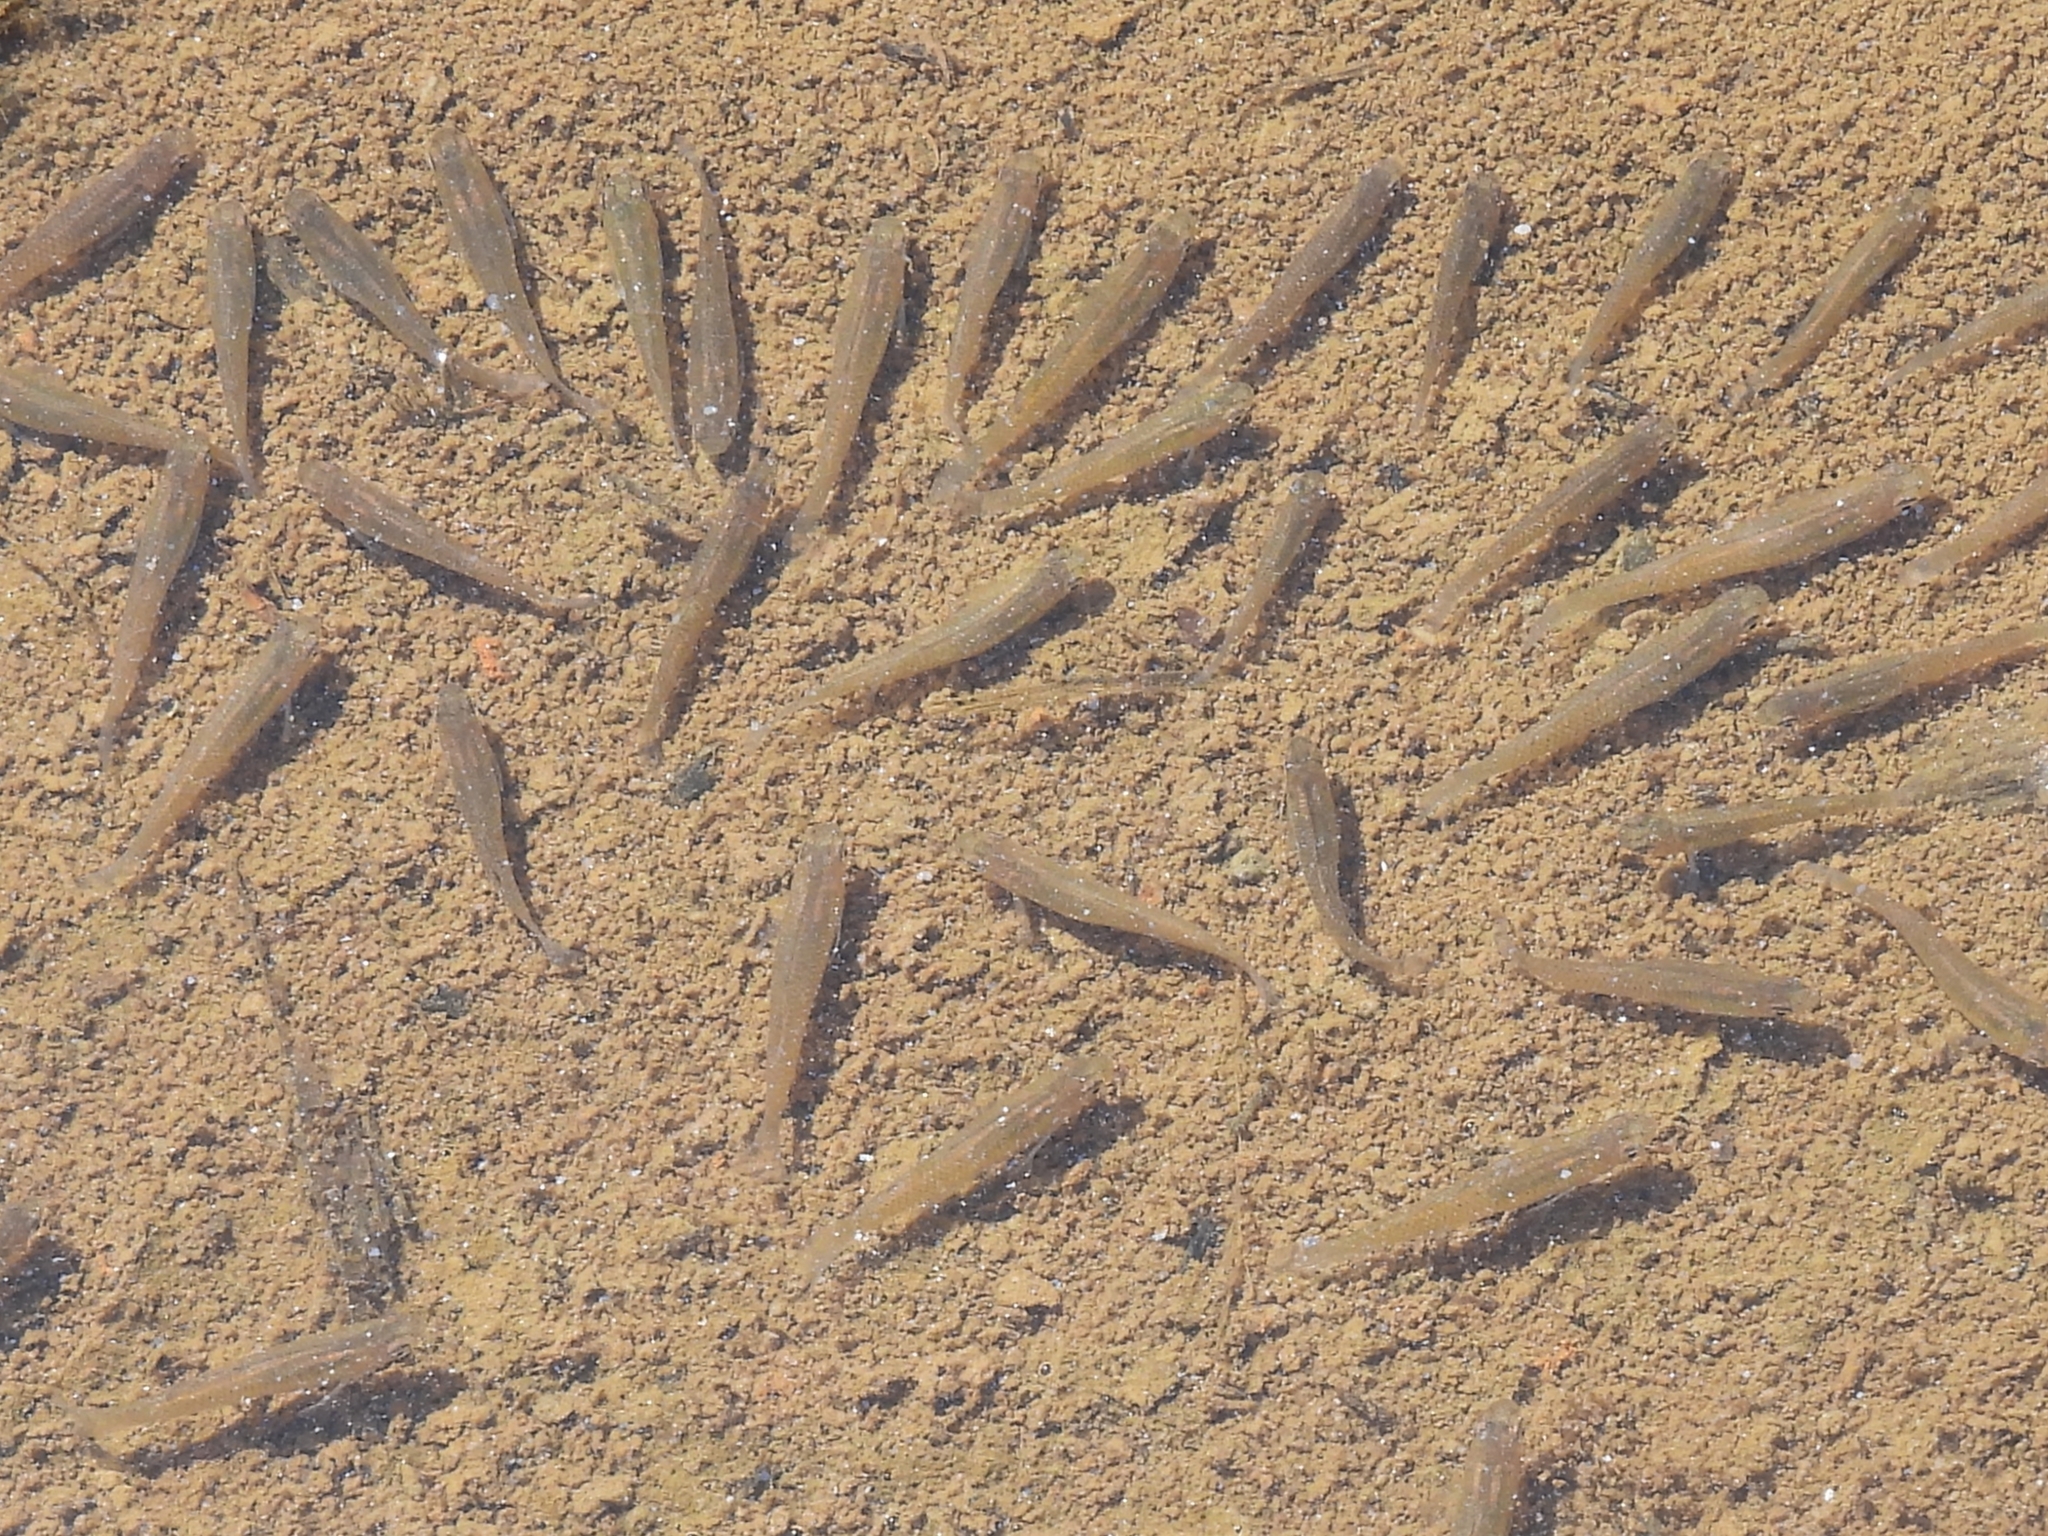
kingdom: Animalia
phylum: Chordata
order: Cyprinodontiformes
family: Poeciliidae
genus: Gambusia
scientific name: Gambusia affinis
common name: Mosquitofish
